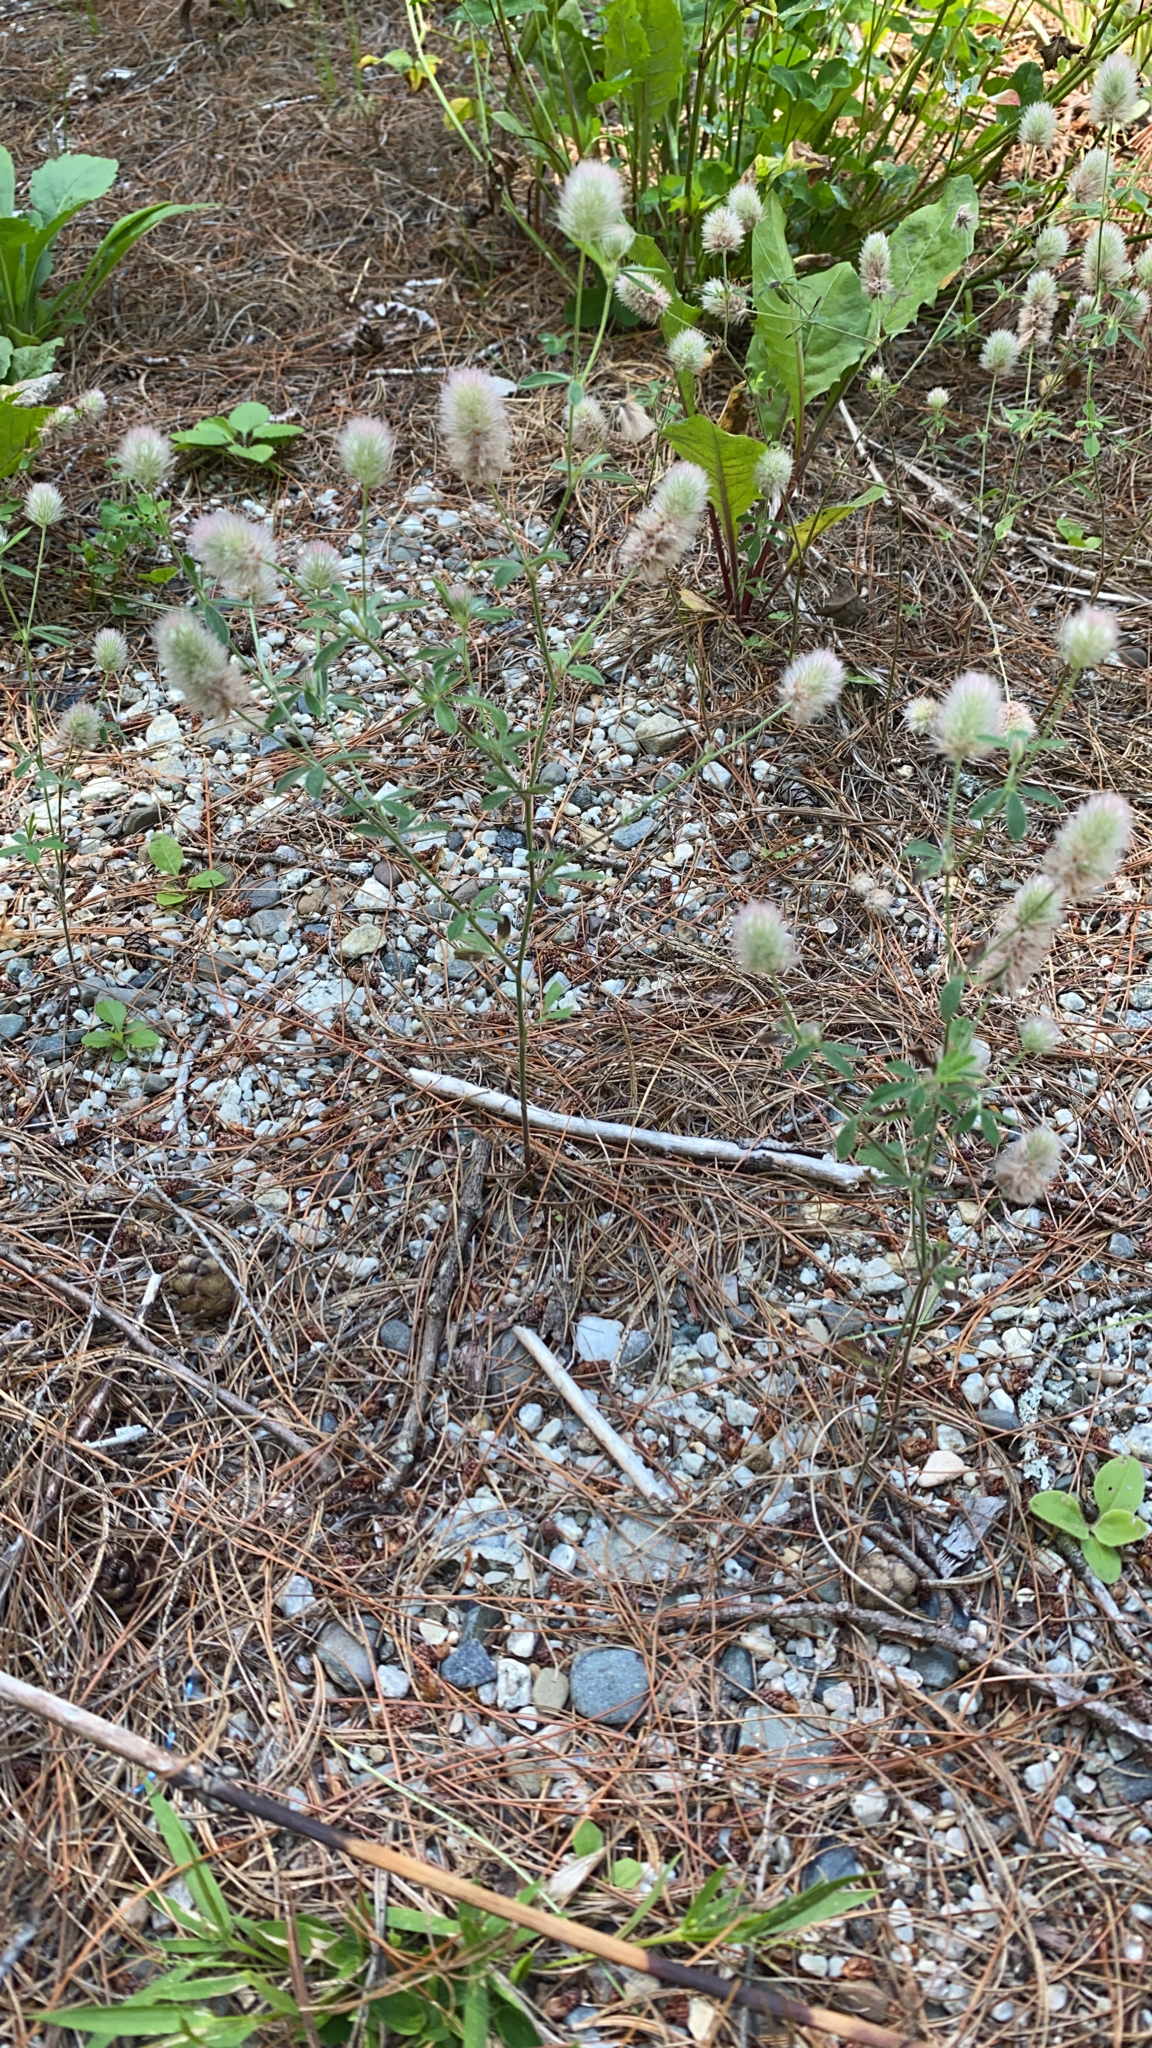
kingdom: Plantae
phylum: Tracheophyta
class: Magnoliopsida
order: Fabales
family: Fabaceae
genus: Trifolium
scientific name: Trifolium arvense
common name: Hare's-foot clover
